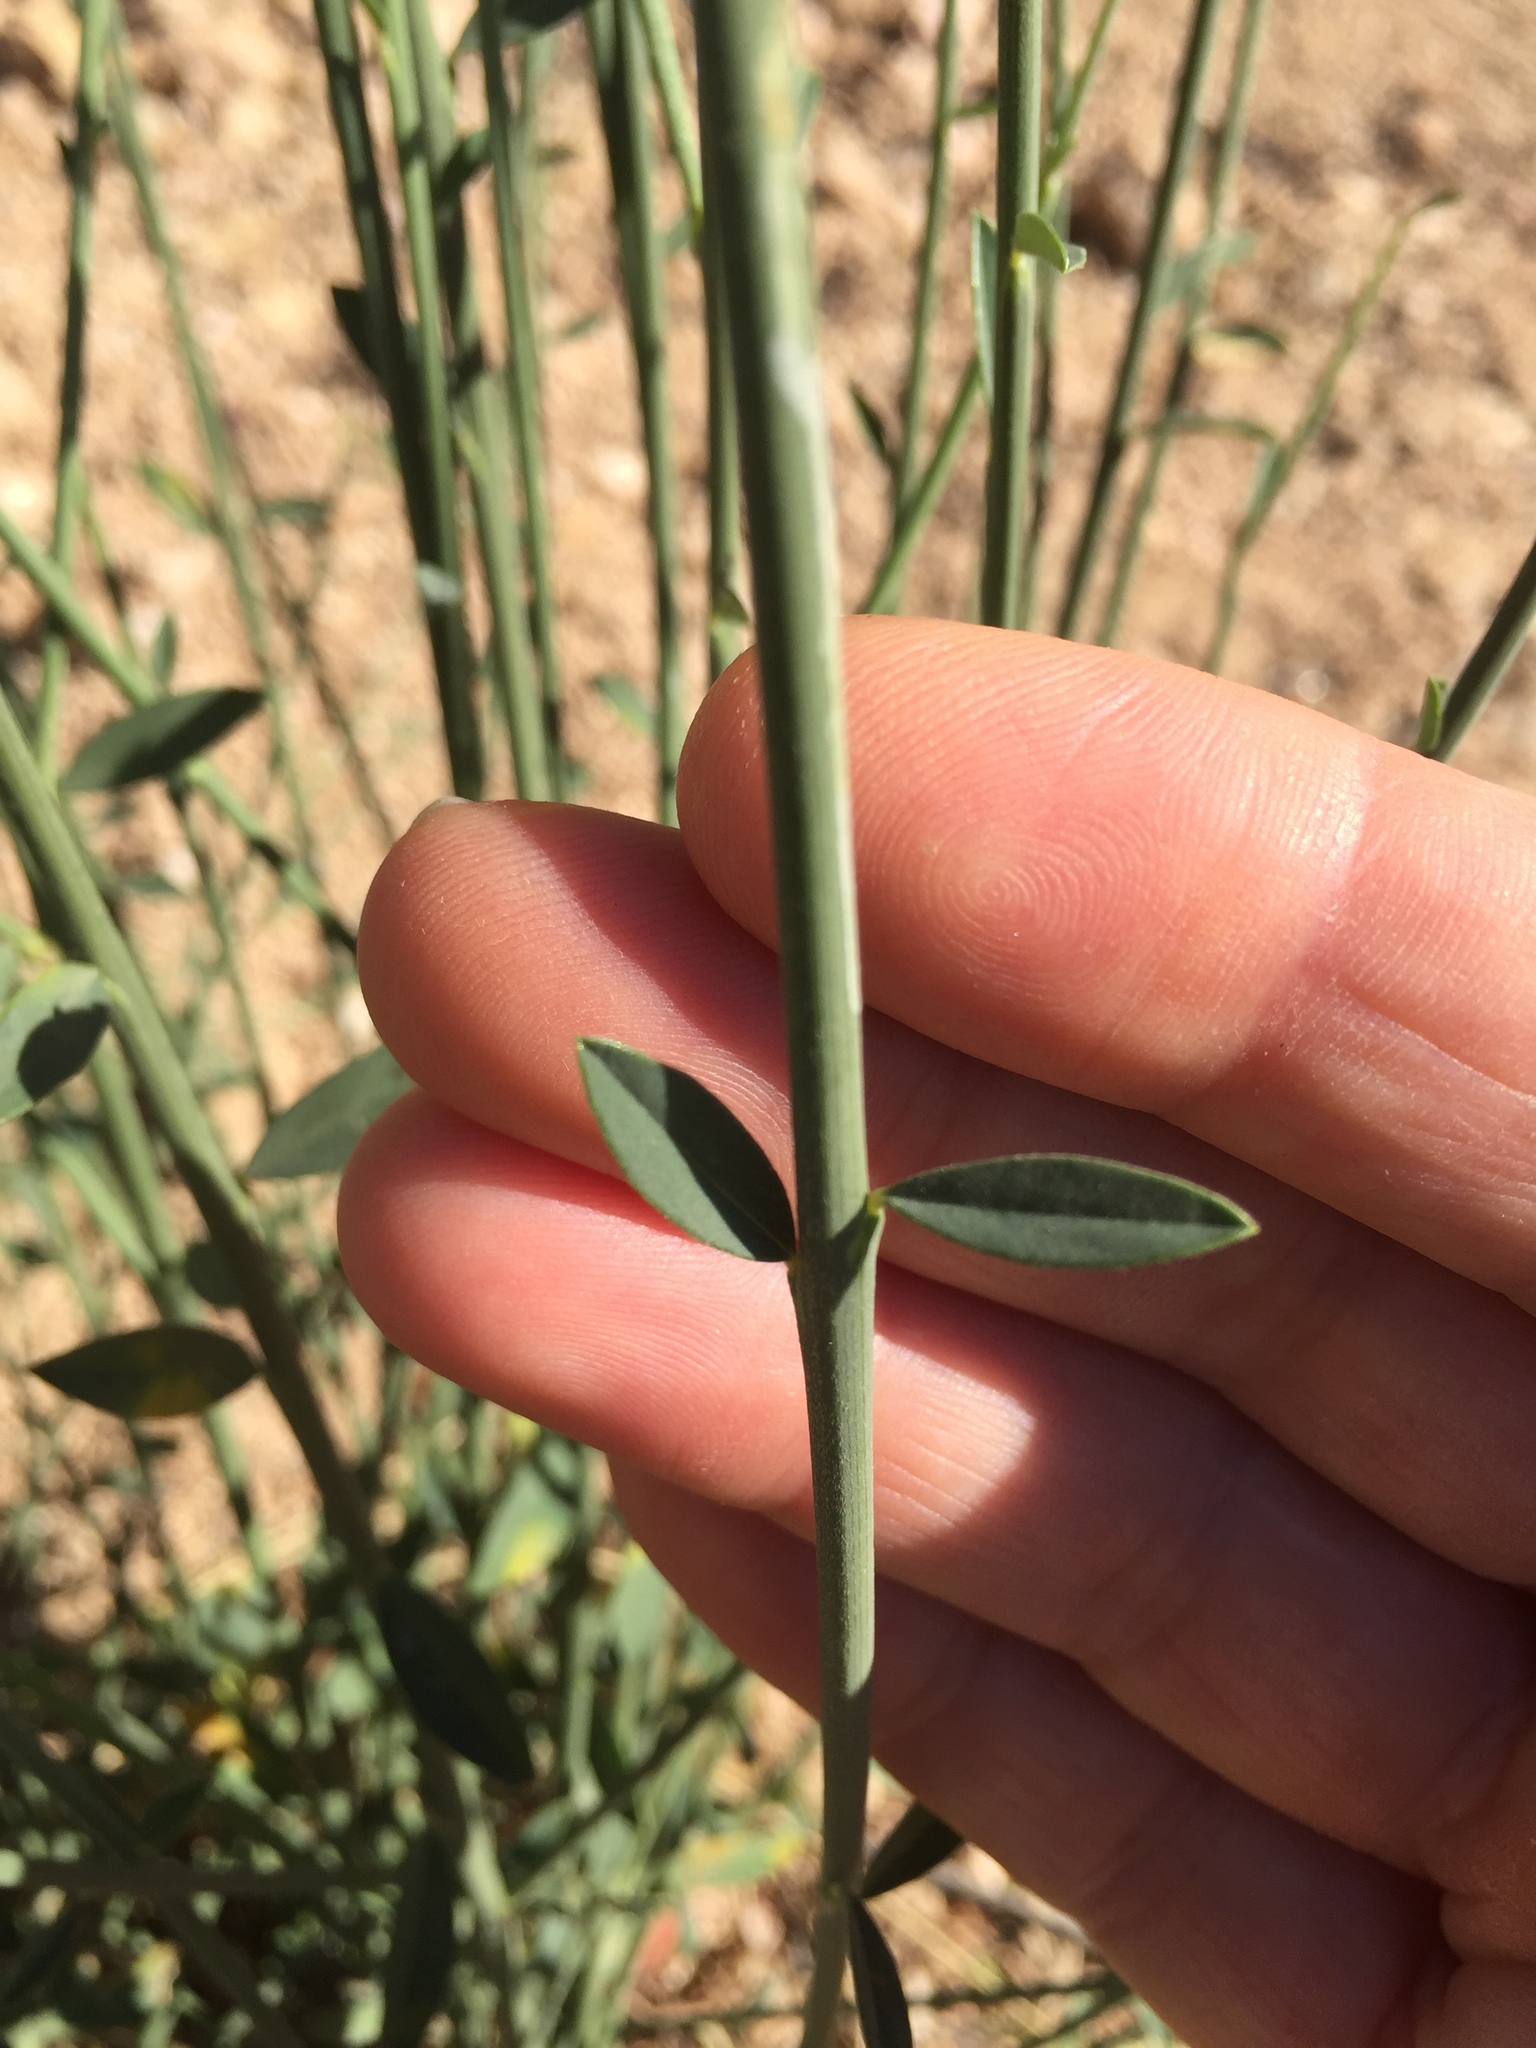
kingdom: Plantae
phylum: Tracheophyta
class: Magnoliopsida
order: Fabales
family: Fabaceae
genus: Spartium
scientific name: Spartium junceum
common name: Spanish broom
